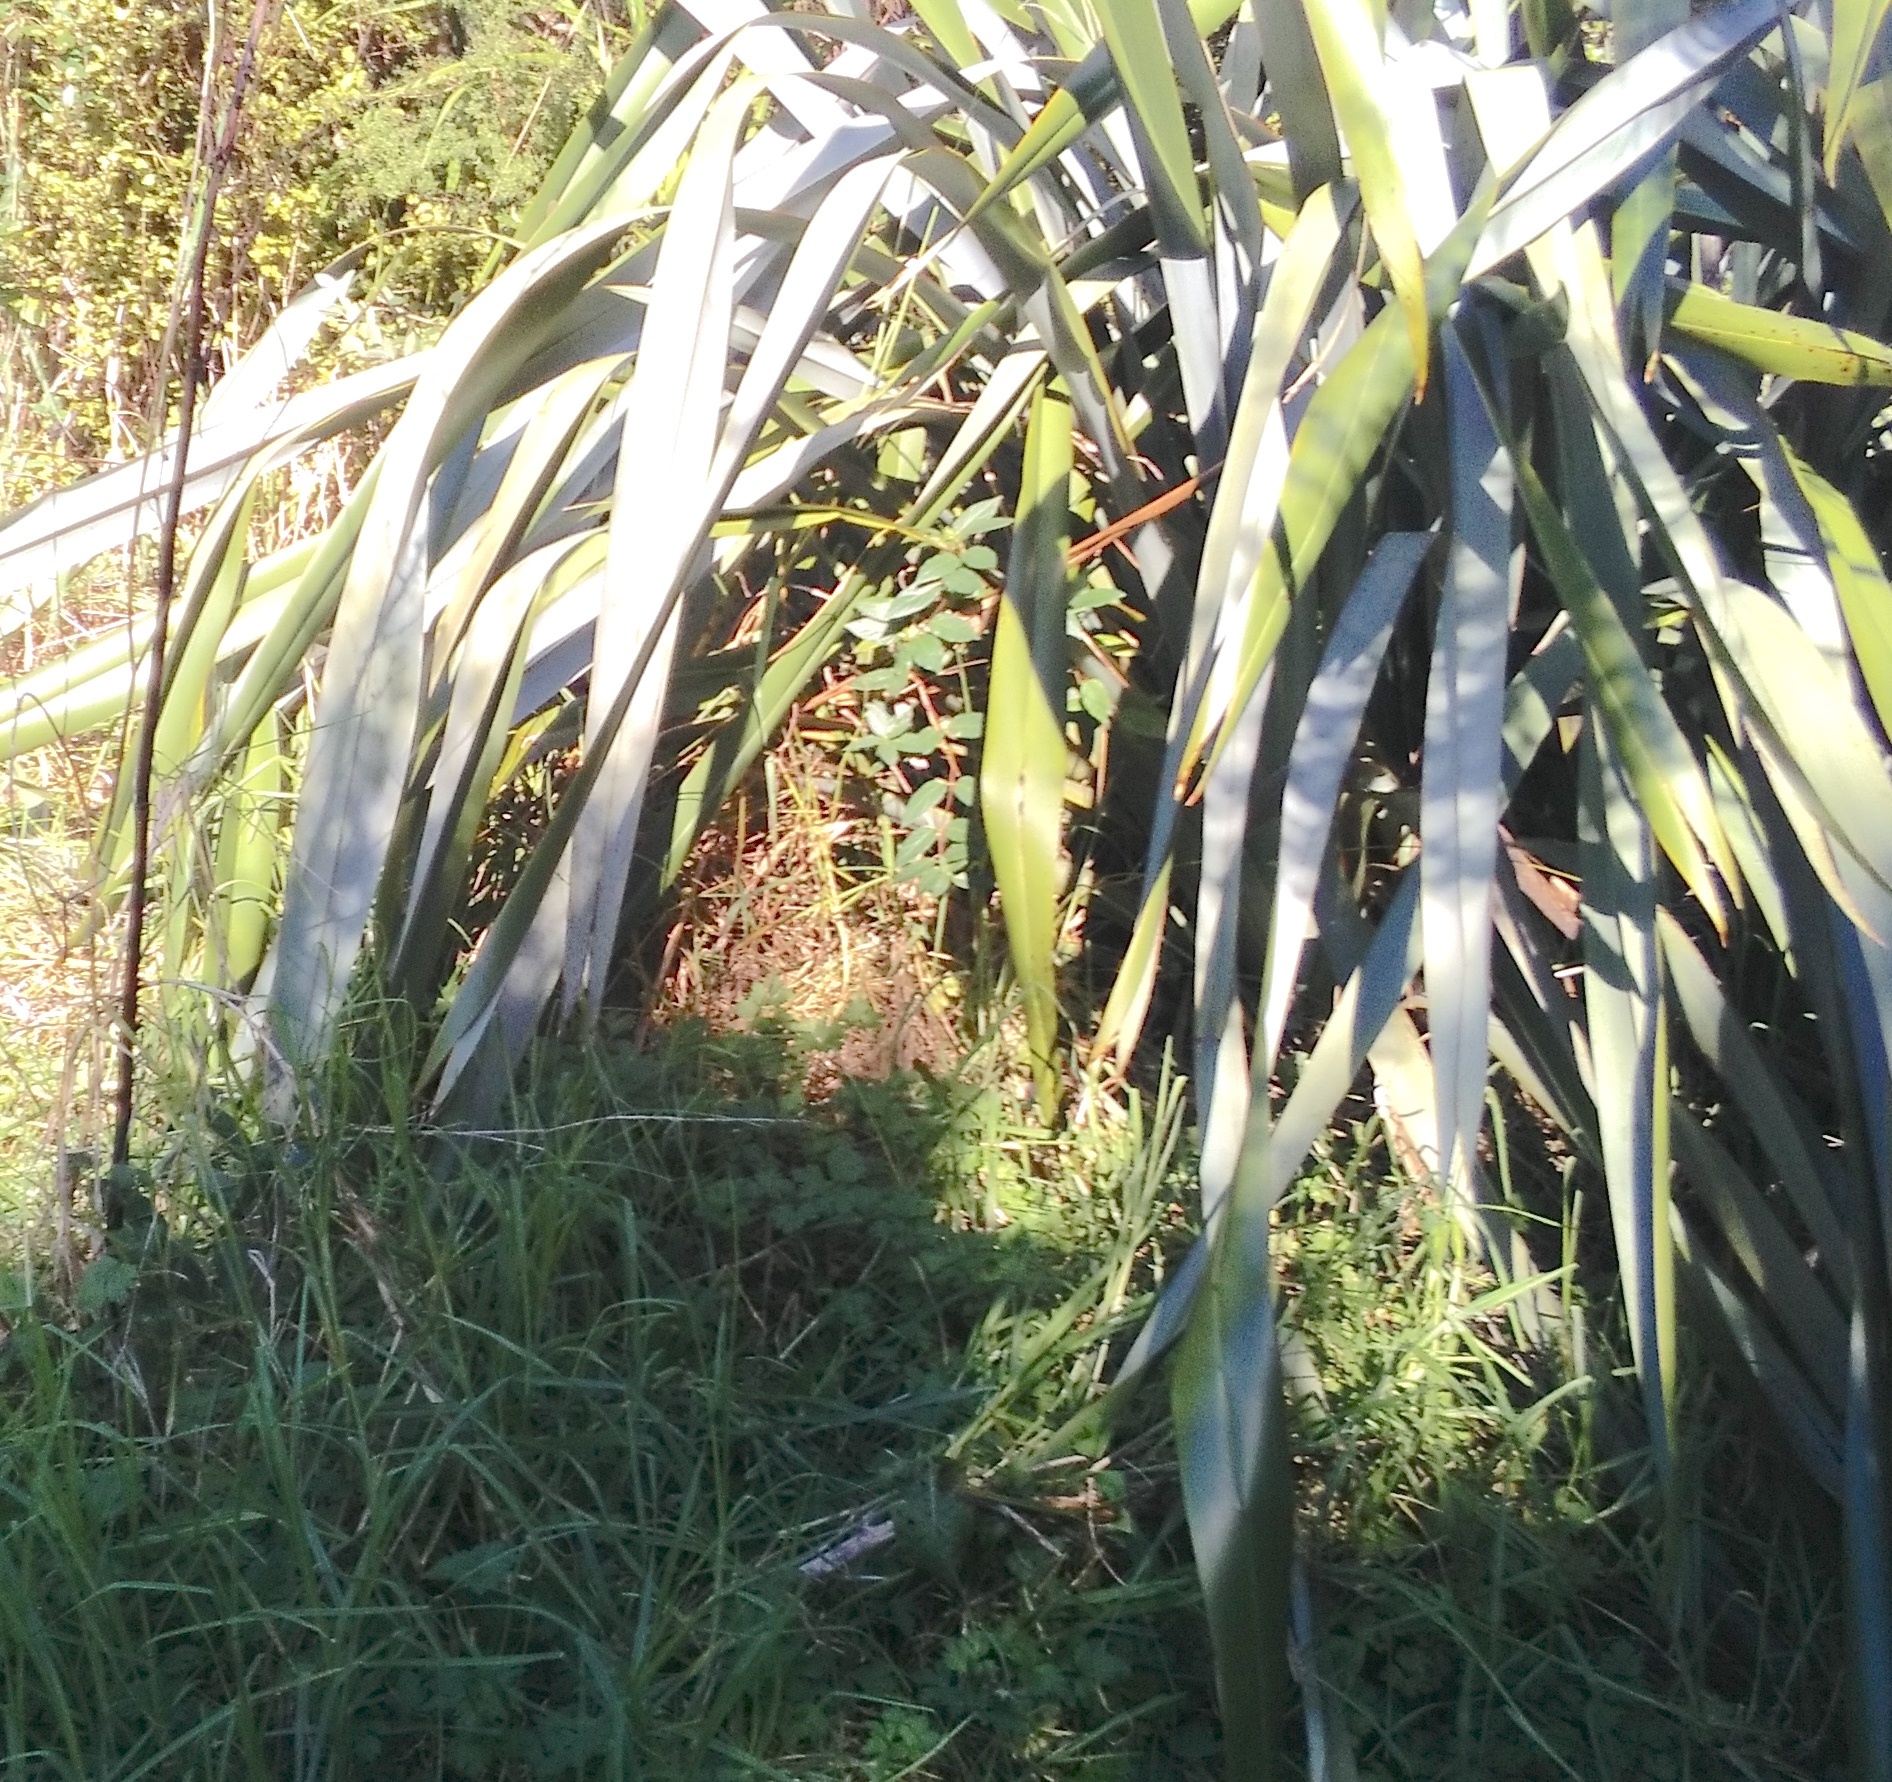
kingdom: Plantae
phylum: Tracheophyta
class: Magnoliopsida
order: Dipsacales
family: Caprifoliaceae
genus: Lonicera
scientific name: Lonicera japonica
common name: Japanese honeysuckle
